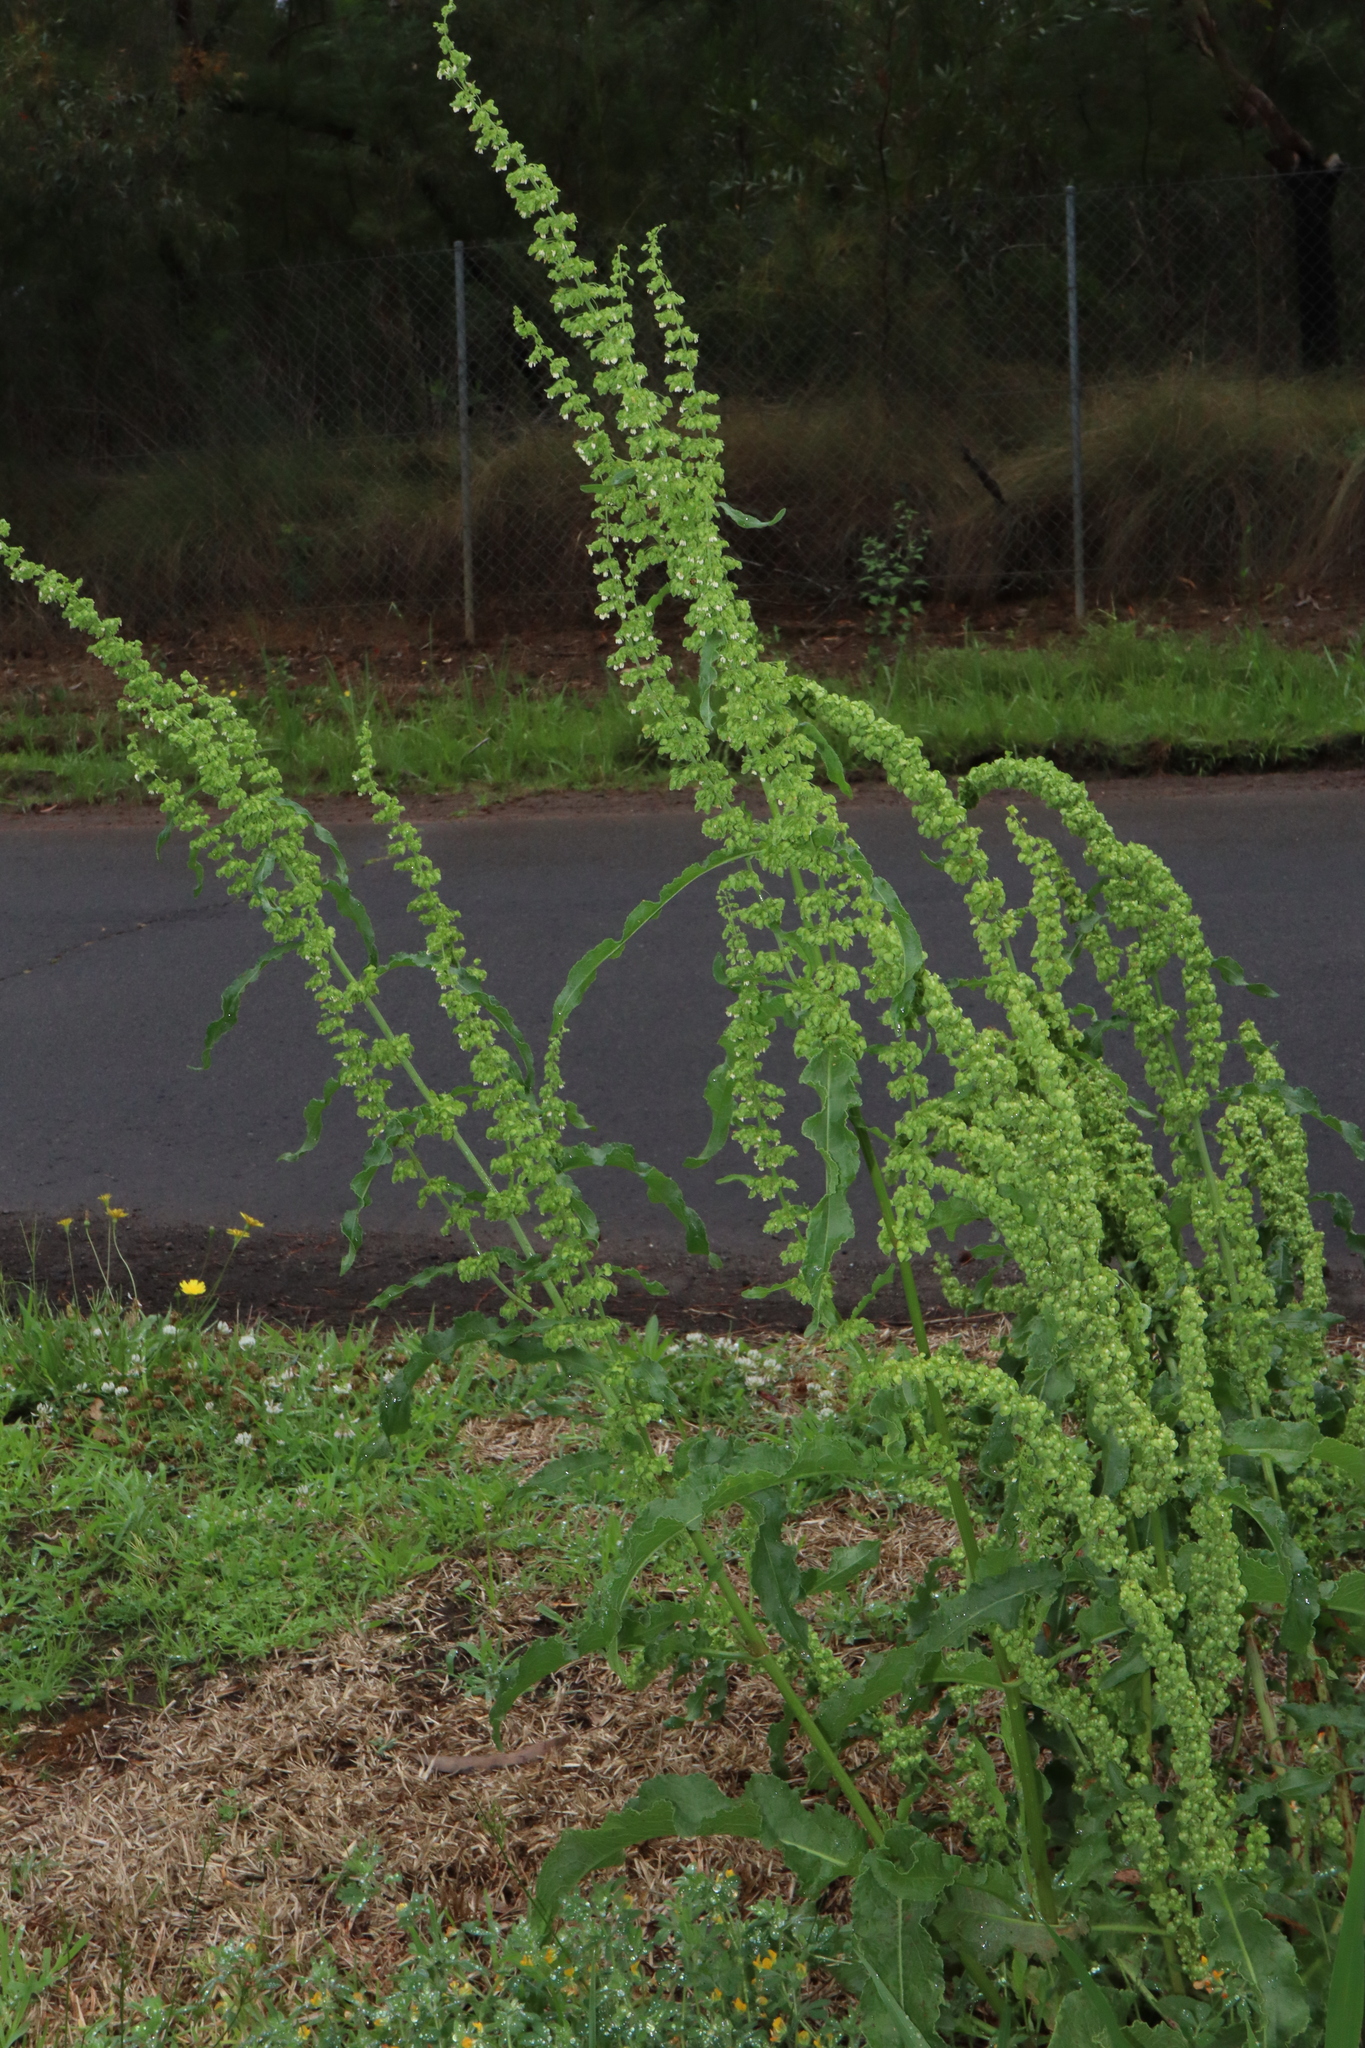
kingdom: Plantae
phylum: Tracheophyta
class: Magnoliopsida
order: Caryophyllales
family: Polygonaceae
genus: Rumex
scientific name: Rumex crispus
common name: Curled dock
